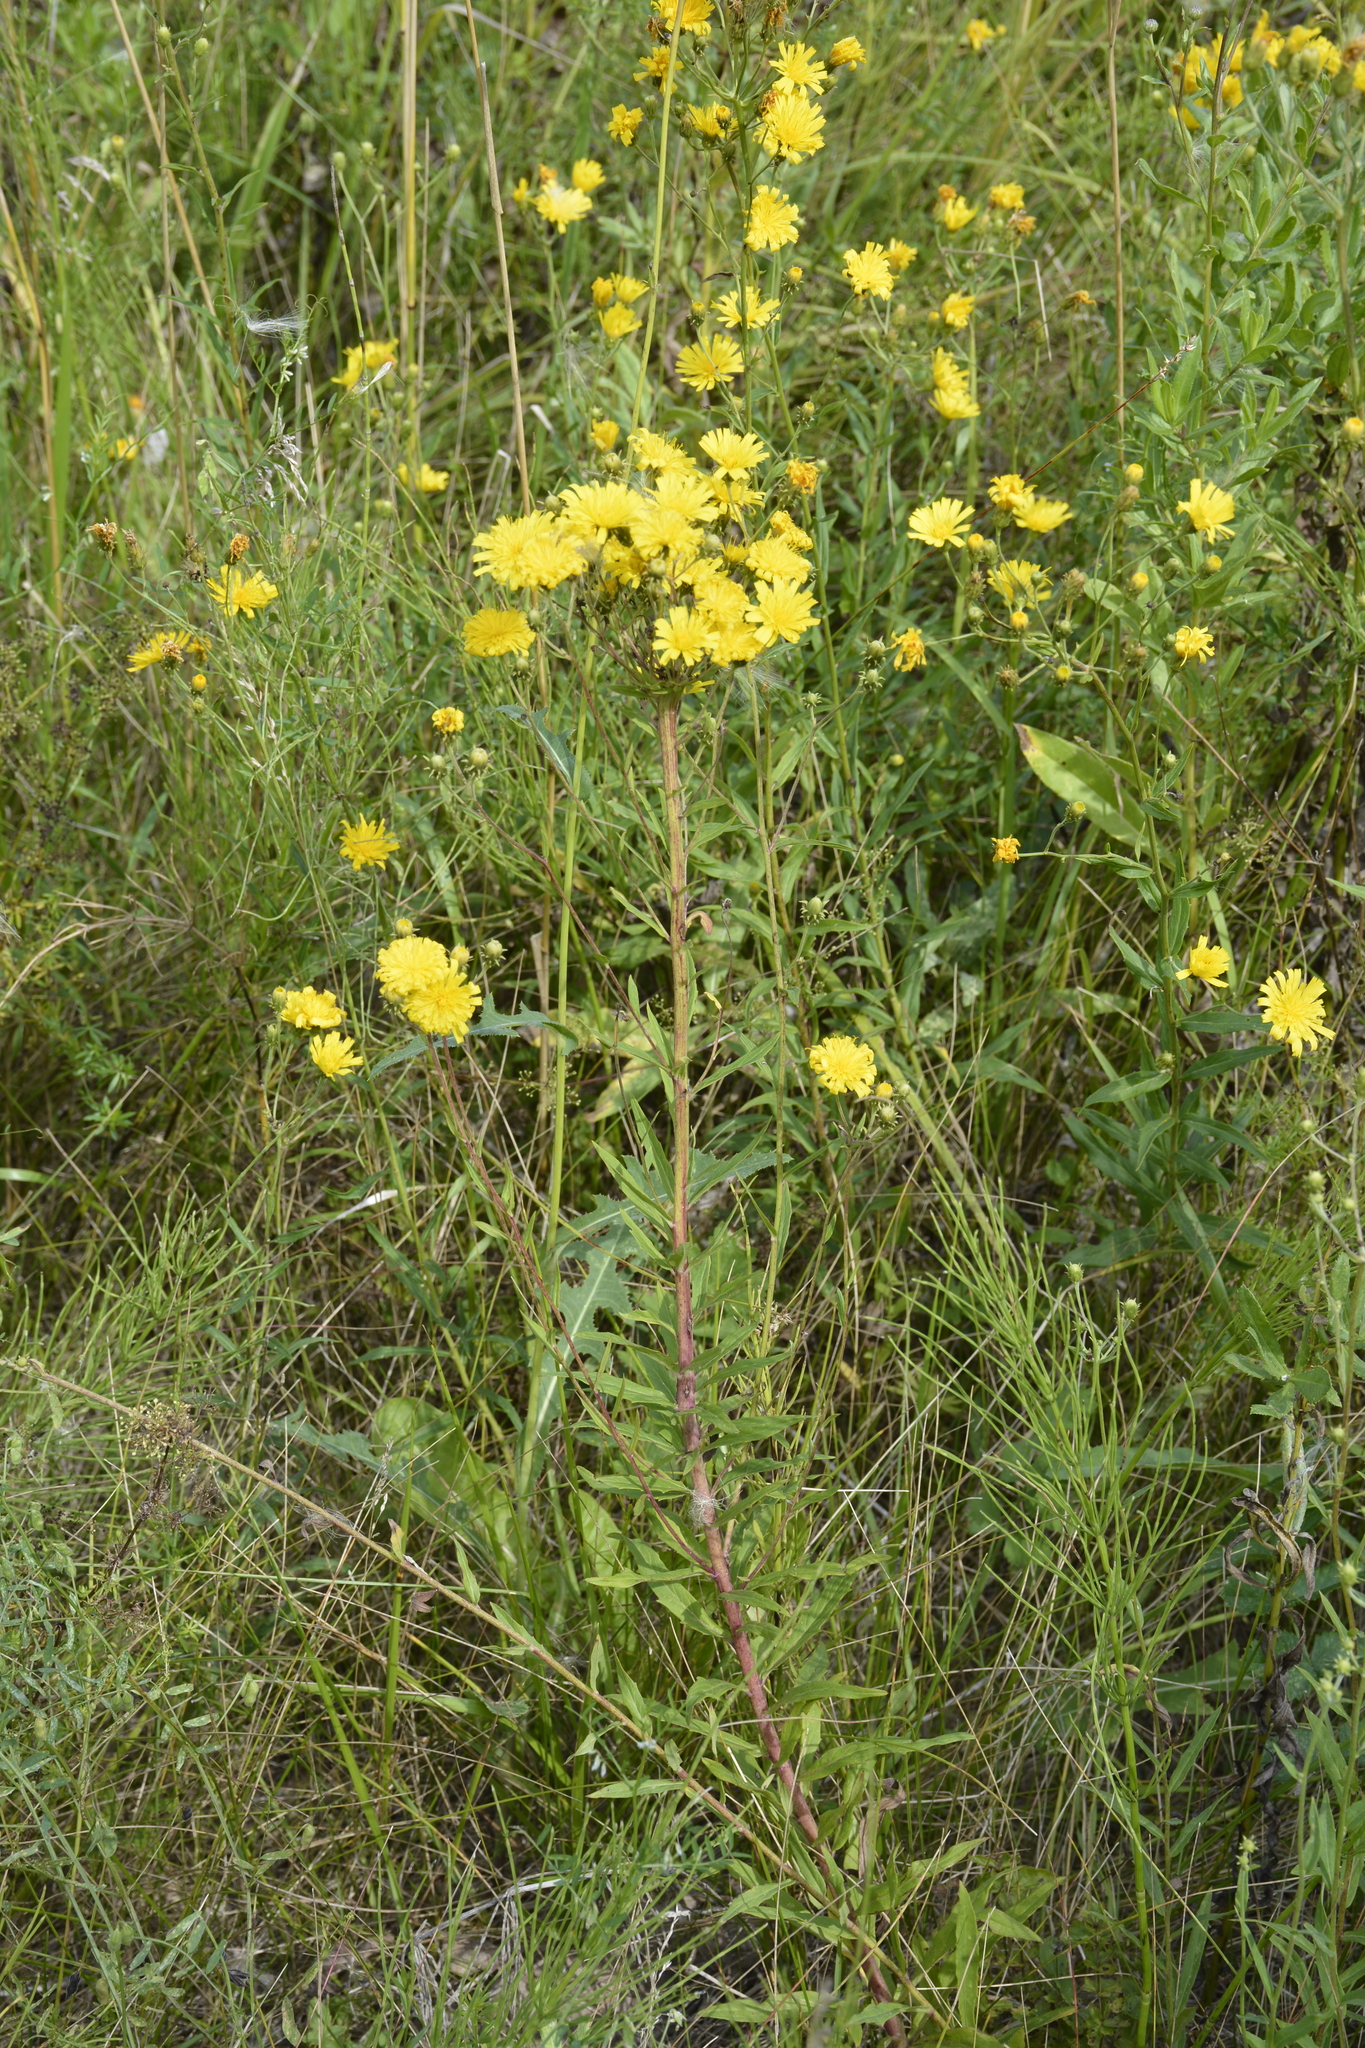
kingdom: Plantae
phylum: Tracheophyta
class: Magnoliopsida
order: Asterales
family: Asteraceae
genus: Hieracium
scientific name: Hieracium umbellatum
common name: Northern hawkweed
